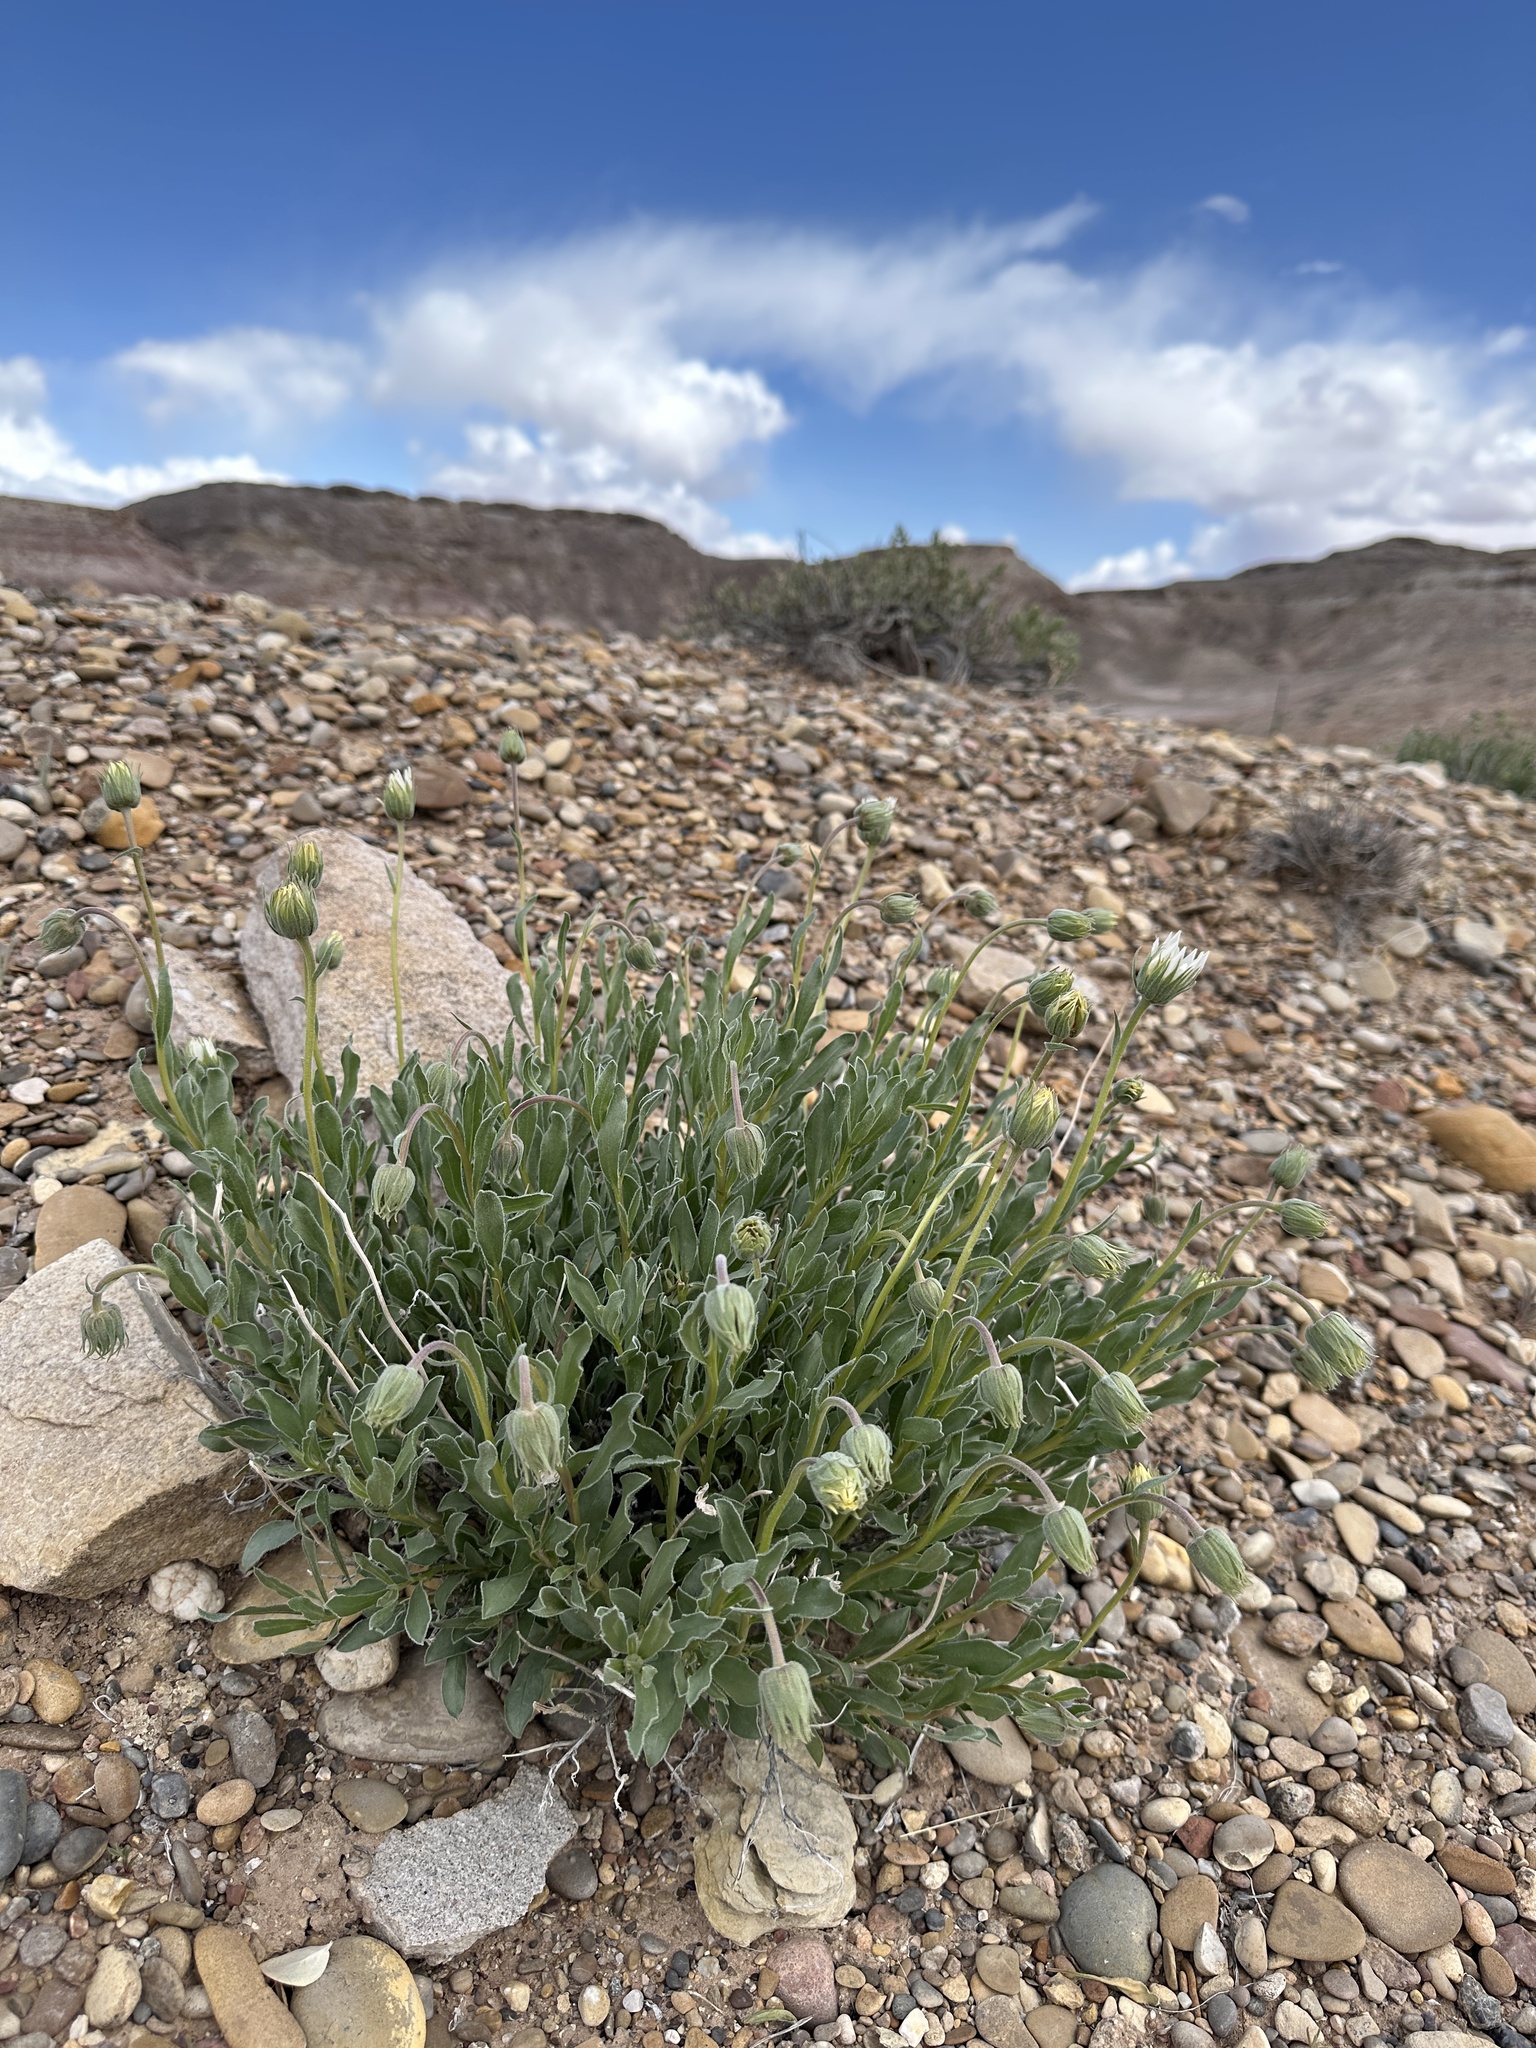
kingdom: Plantae
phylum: Tracheophyta
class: Magnoliopsida
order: Asterales
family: Asteraceae
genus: Xylorhiza
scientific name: Xylorhiza venusta
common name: Cisco woody-aster
